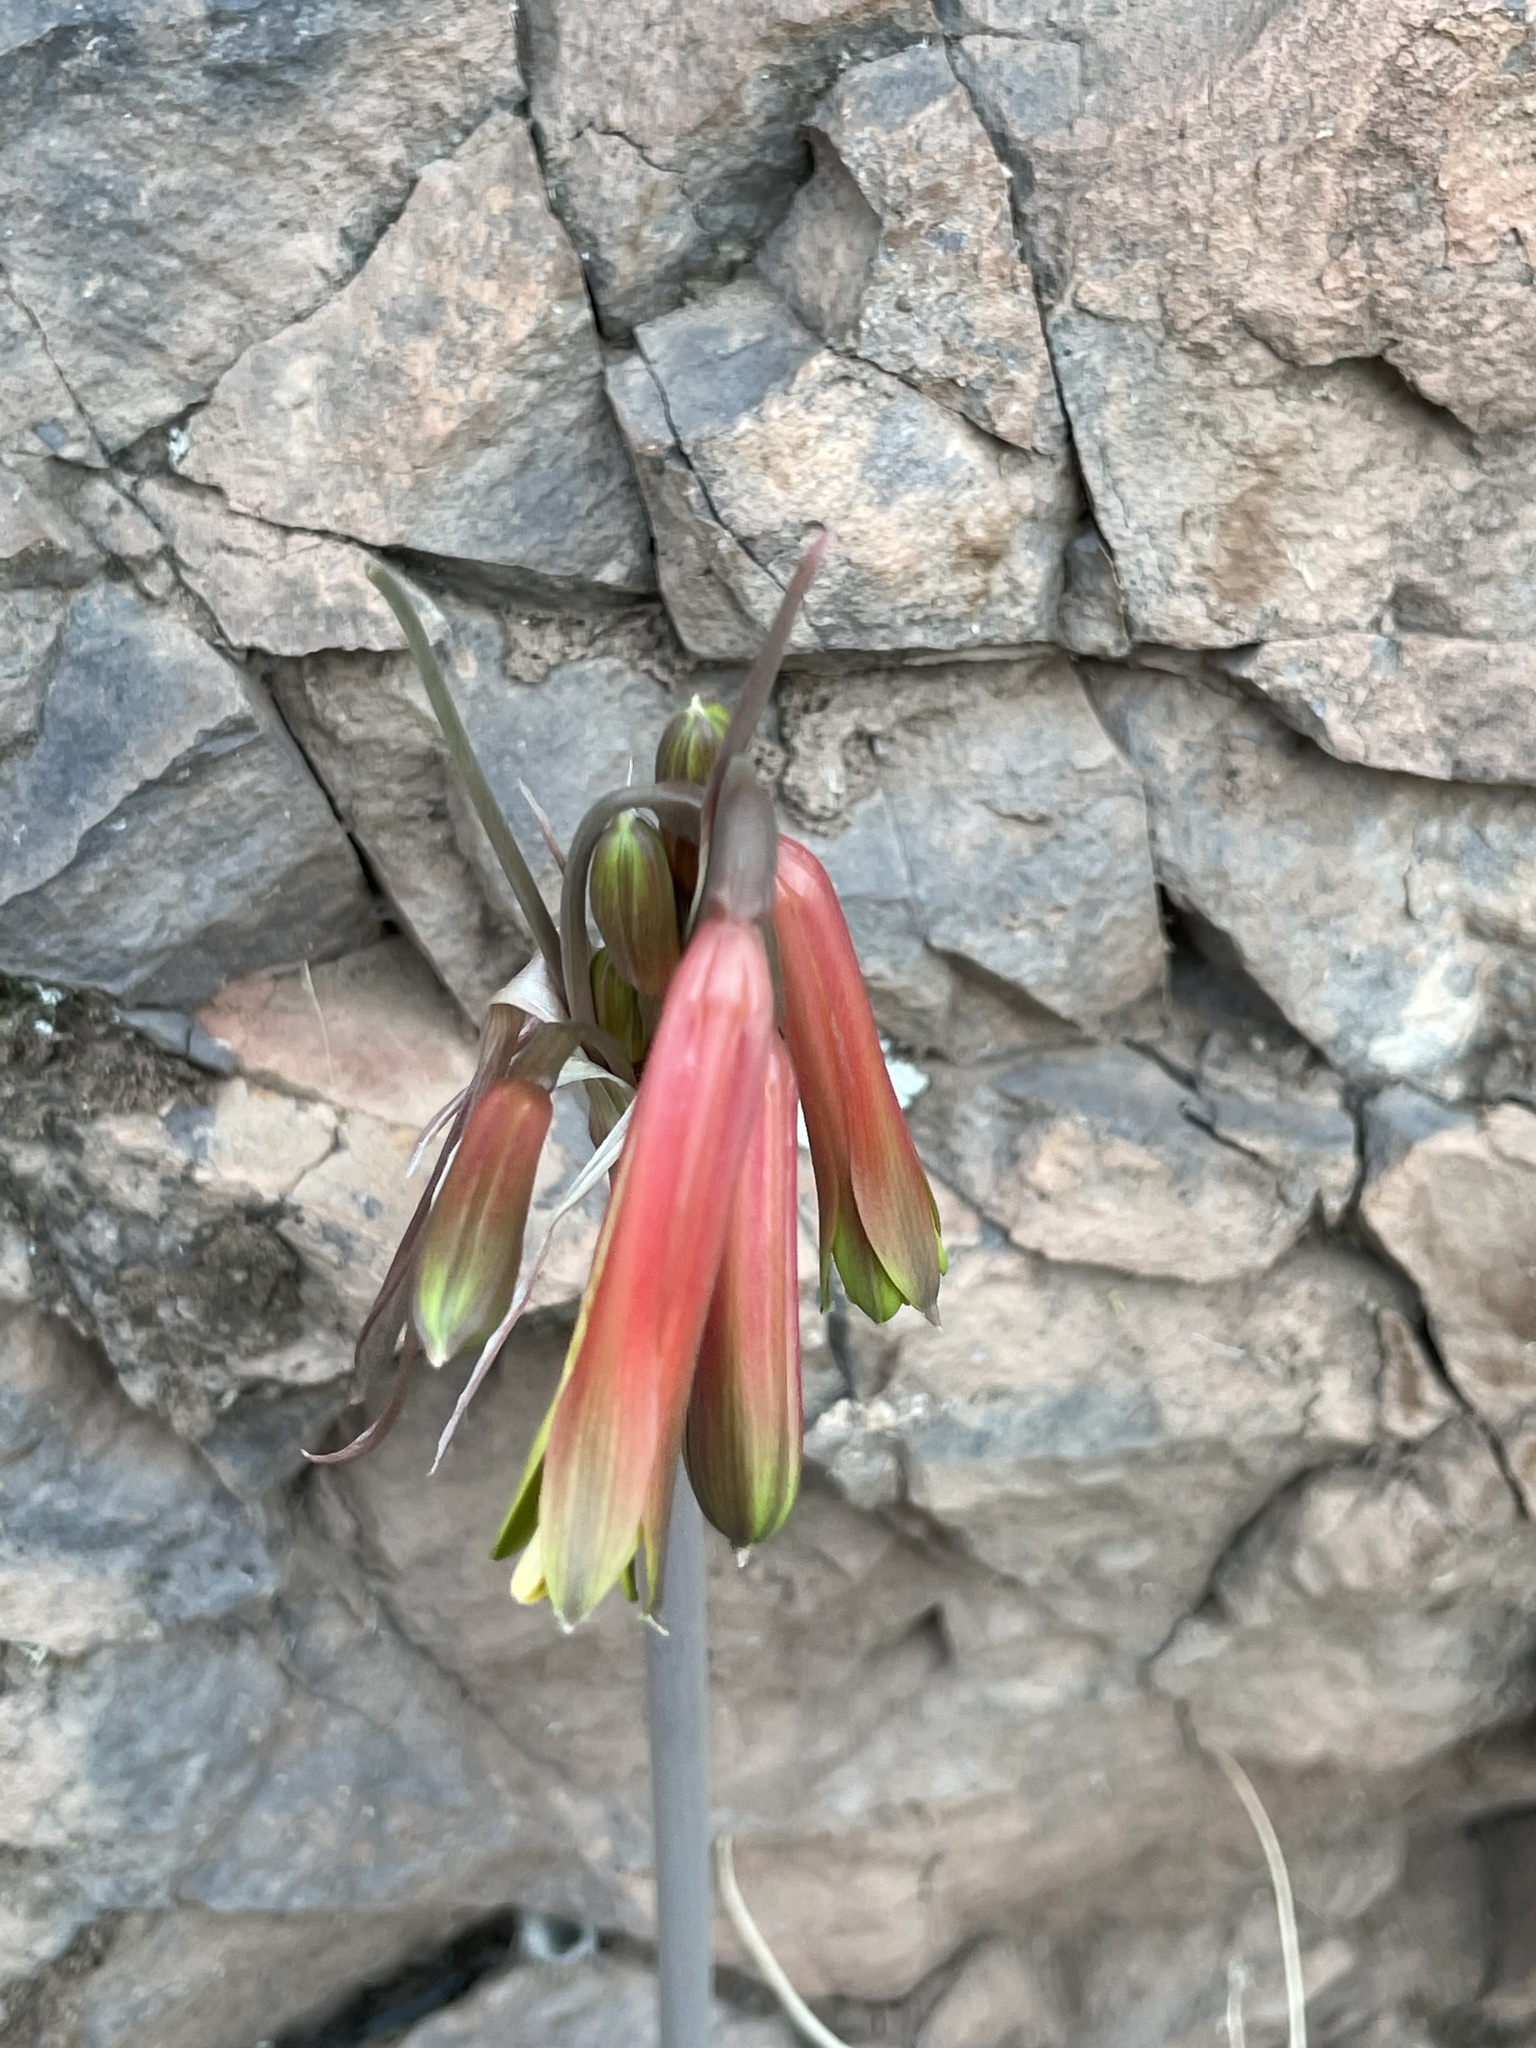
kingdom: Plantae
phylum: Tracheophyta
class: Liliopsida
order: Asparagales
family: Amaryllidaceae
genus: Eustephia
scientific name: Eustephia darwinii
